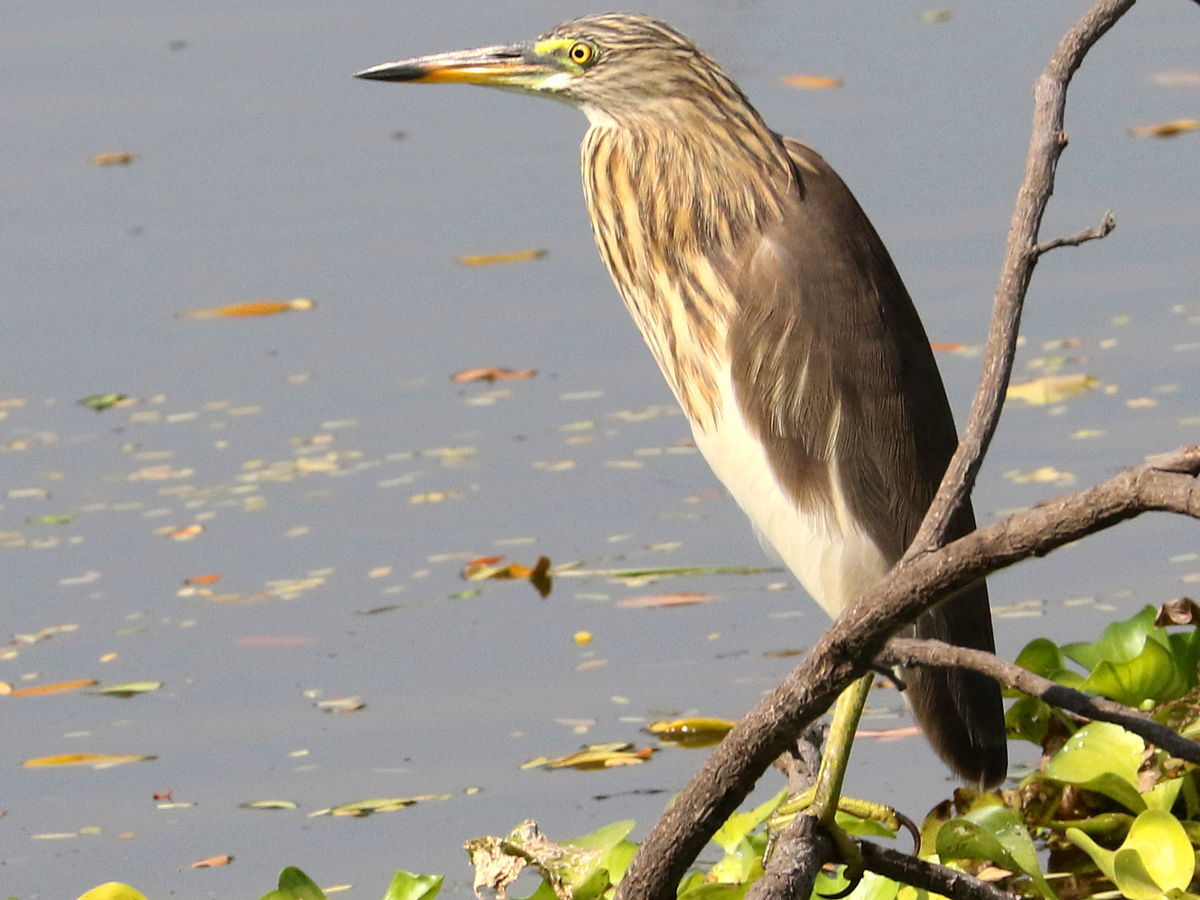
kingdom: Animalia
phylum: Chordata
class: Aves
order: Pelecaniformes
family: Ardeidae
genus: Ardeola
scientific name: Ardeola
